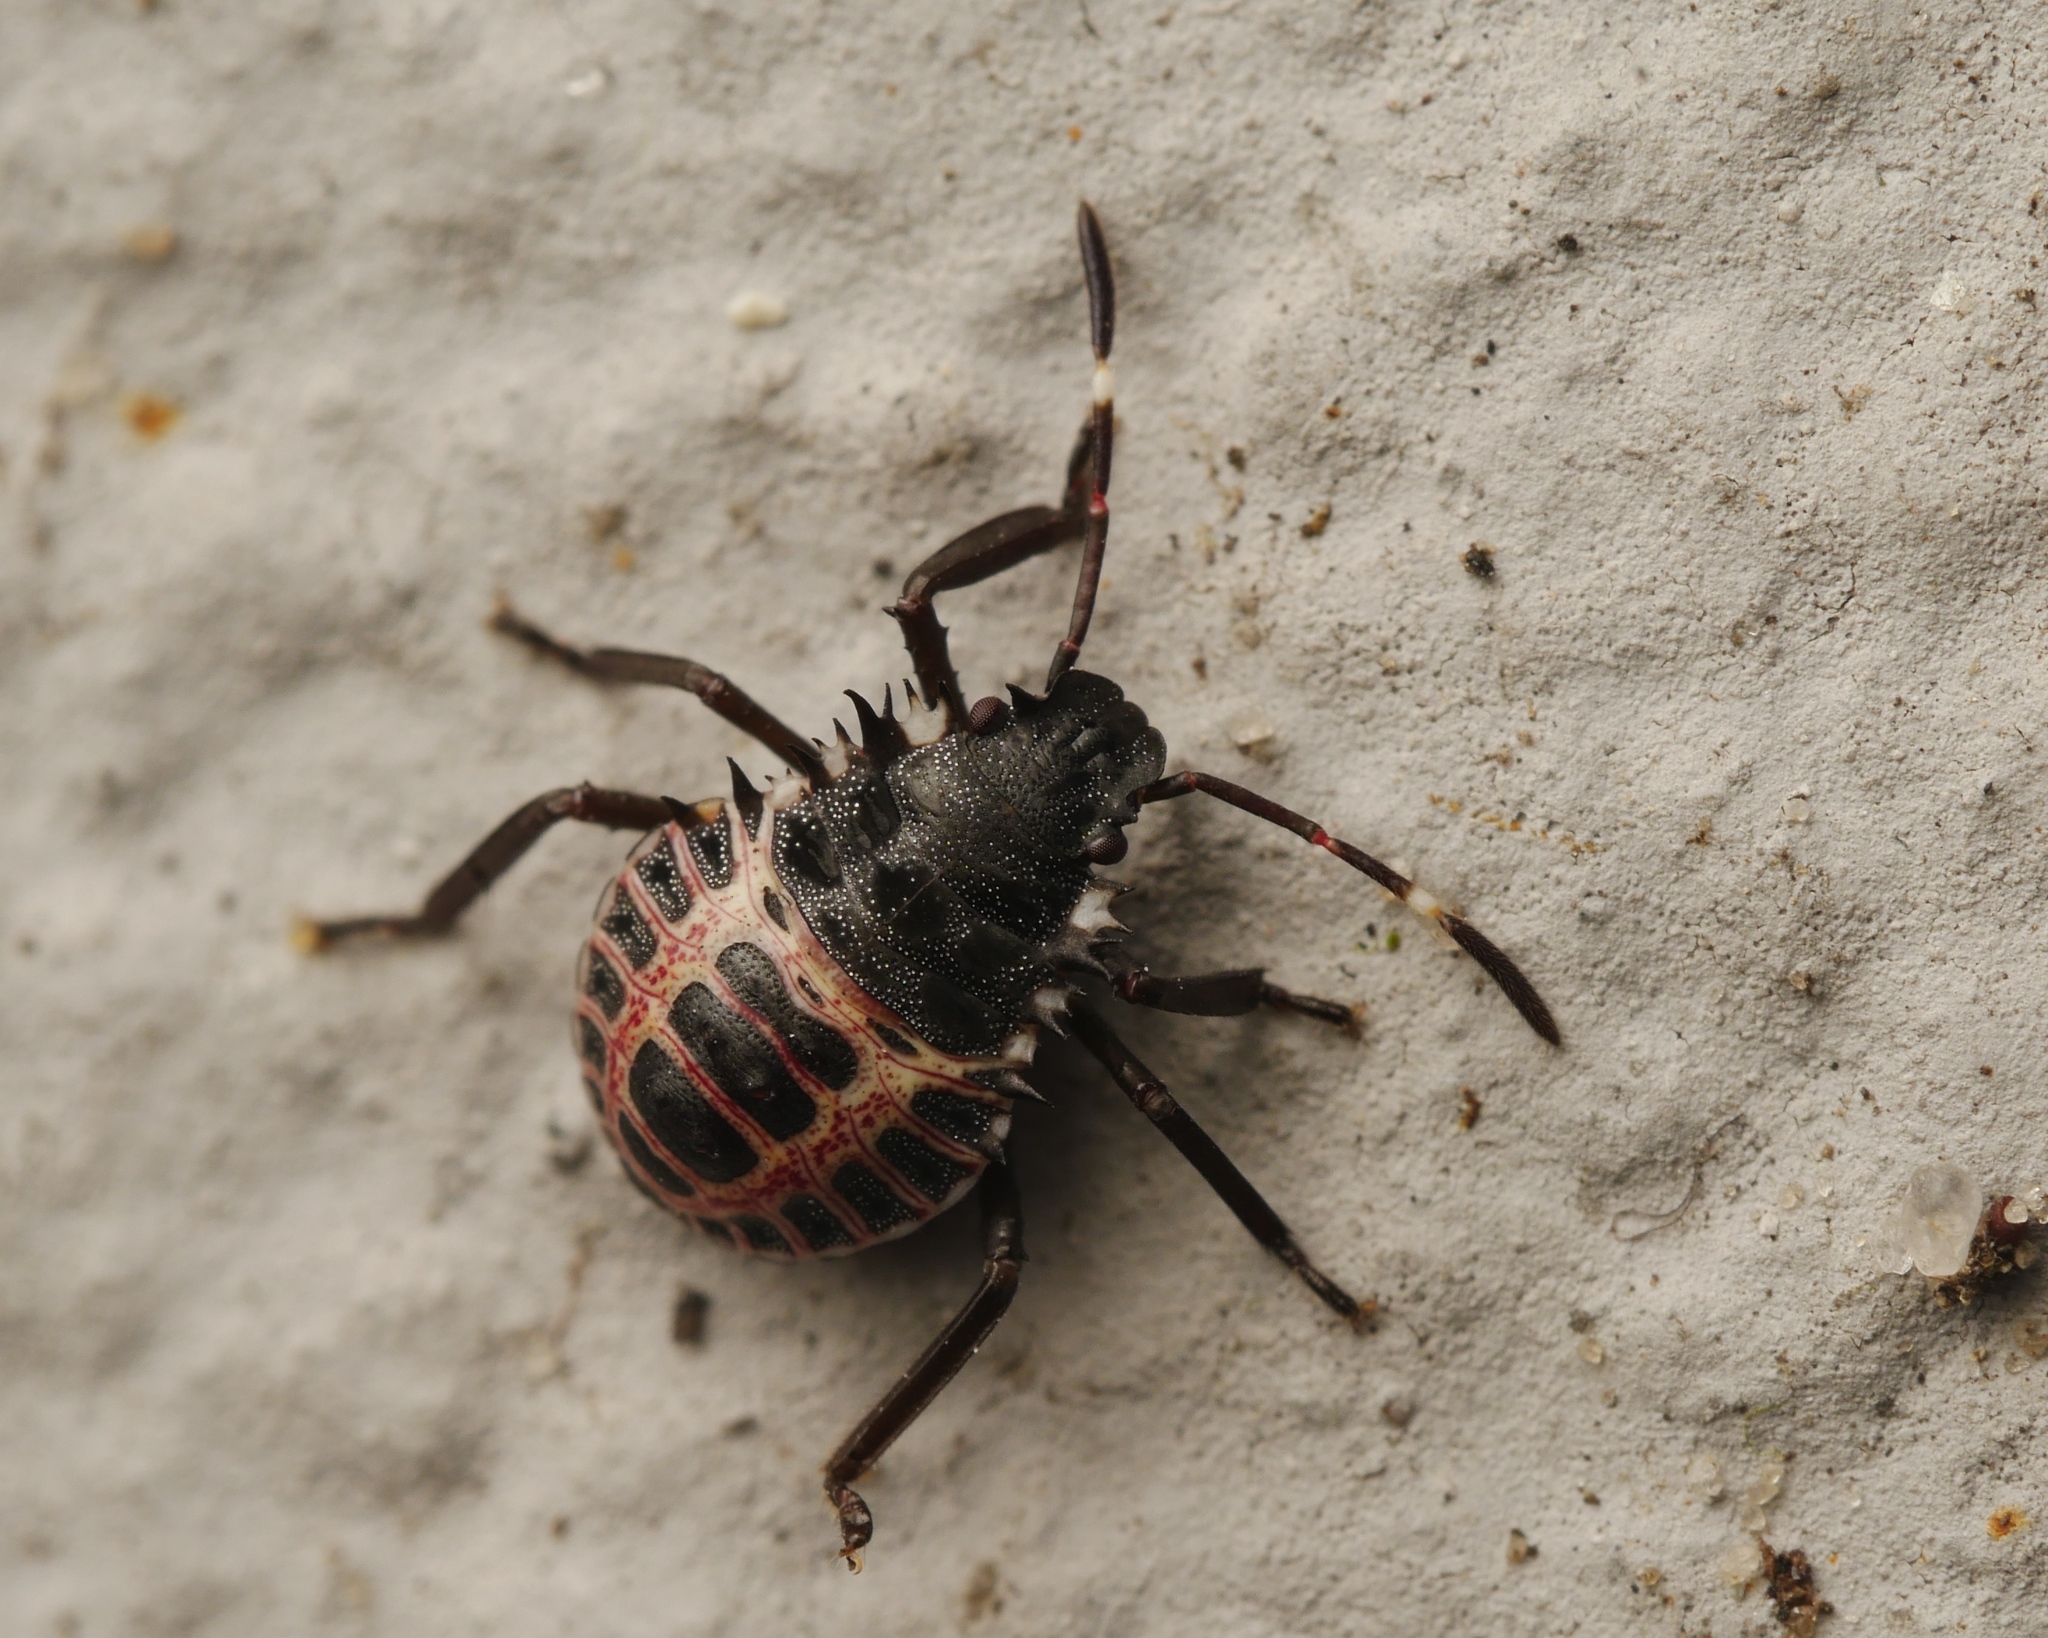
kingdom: Animalia
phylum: Arthropoda
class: Insecta
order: Hemiptera
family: Pentatomidae
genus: Halyomorpha
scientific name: Halyomorpha halys
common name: Brown marmorated stink bug
